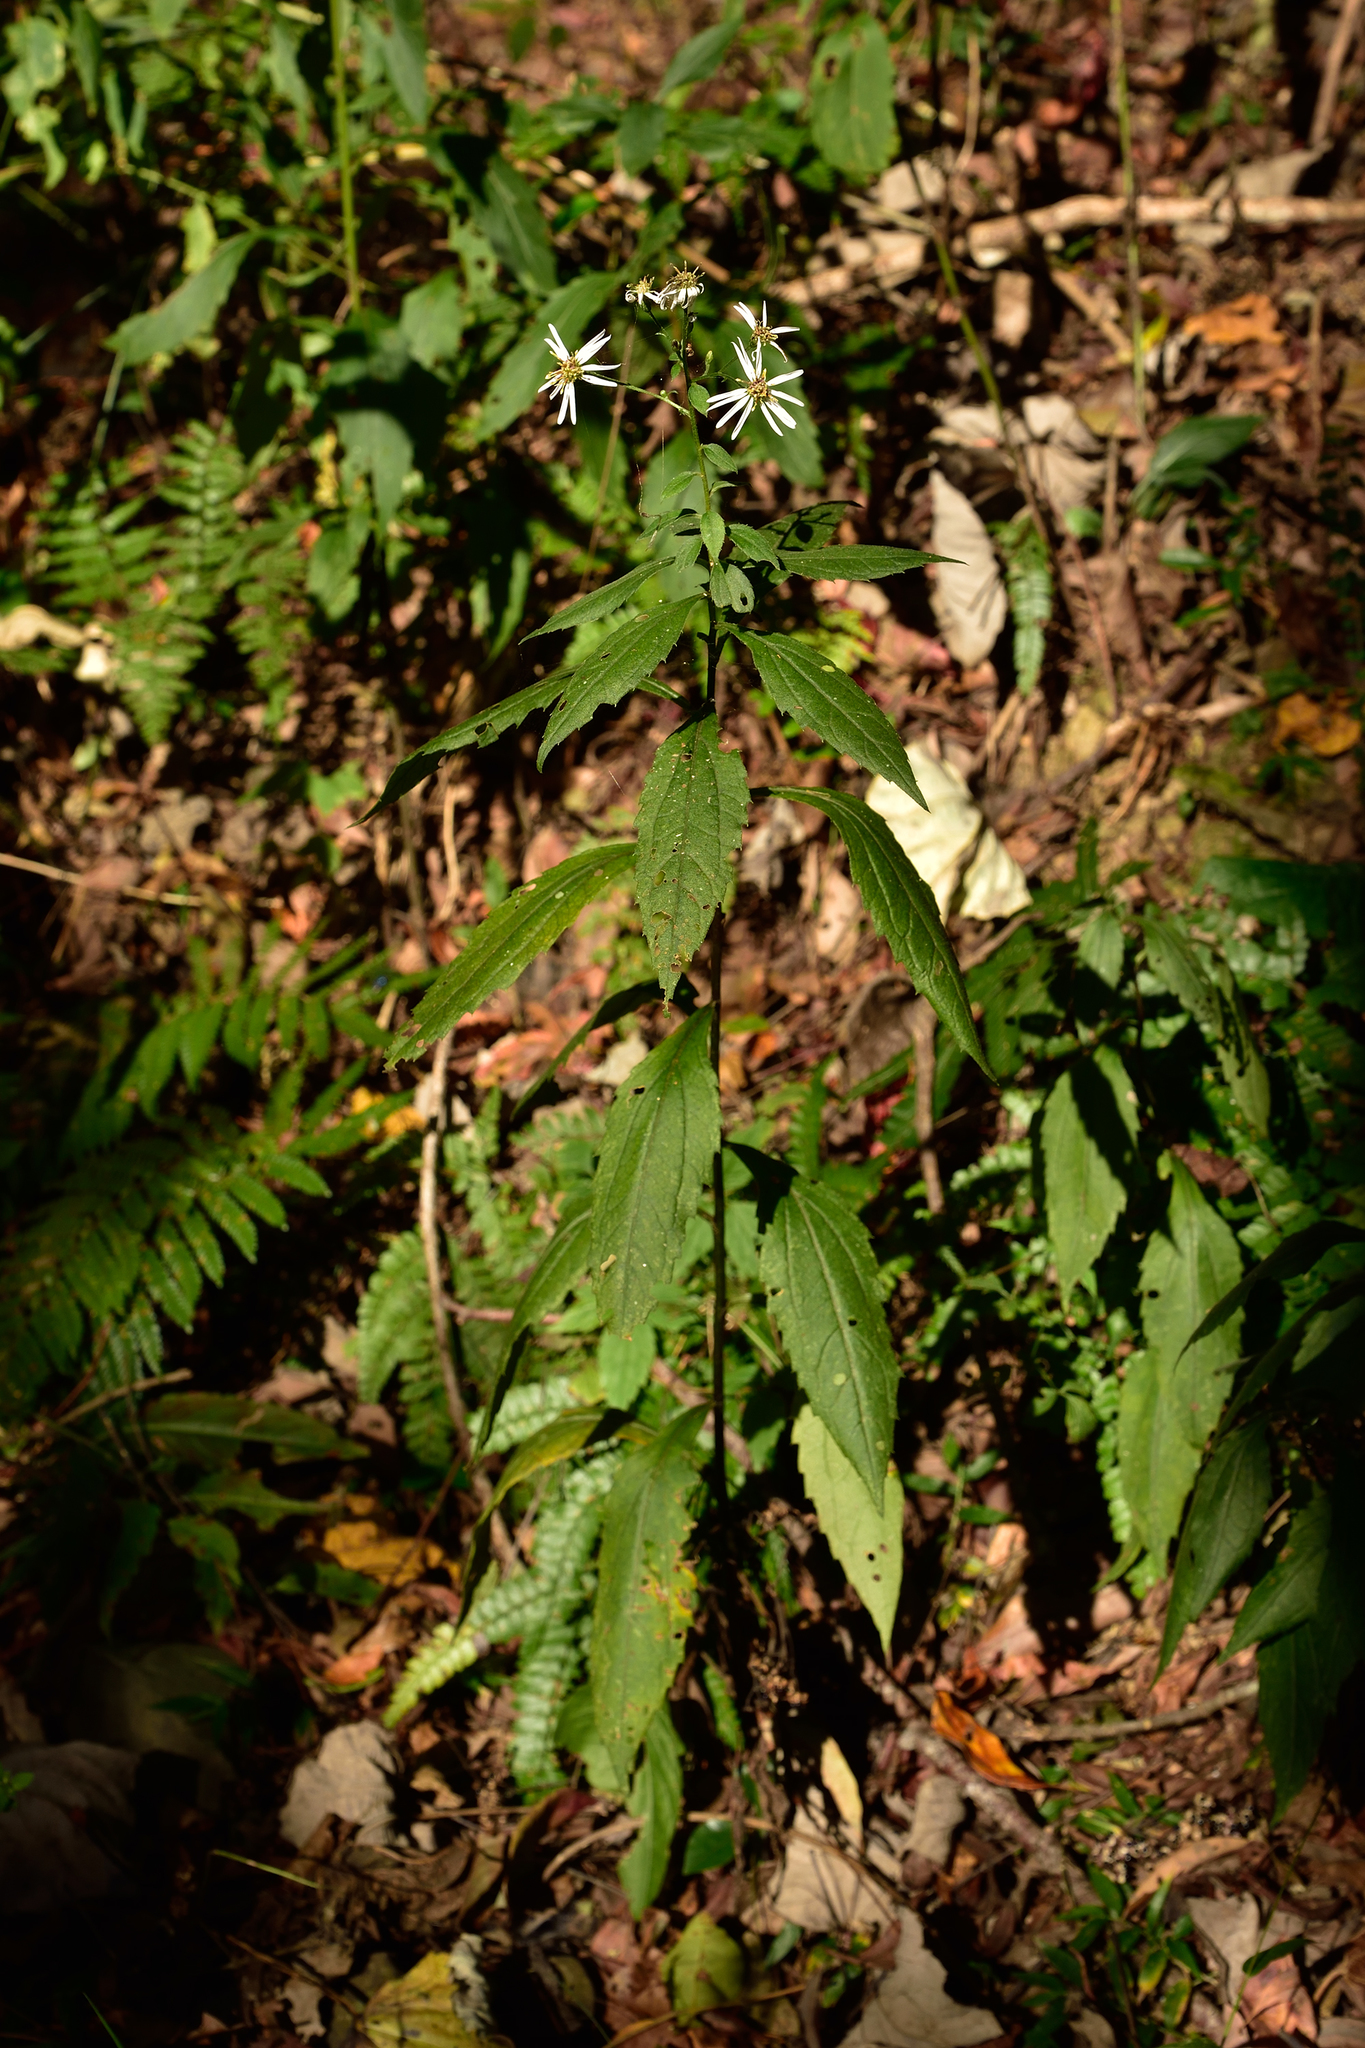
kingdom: Plantae
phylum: Tracheophyta
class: Magnoliopsida
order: Asterales
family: Asteraceae
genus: Aster
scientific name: Aster ageratoides
